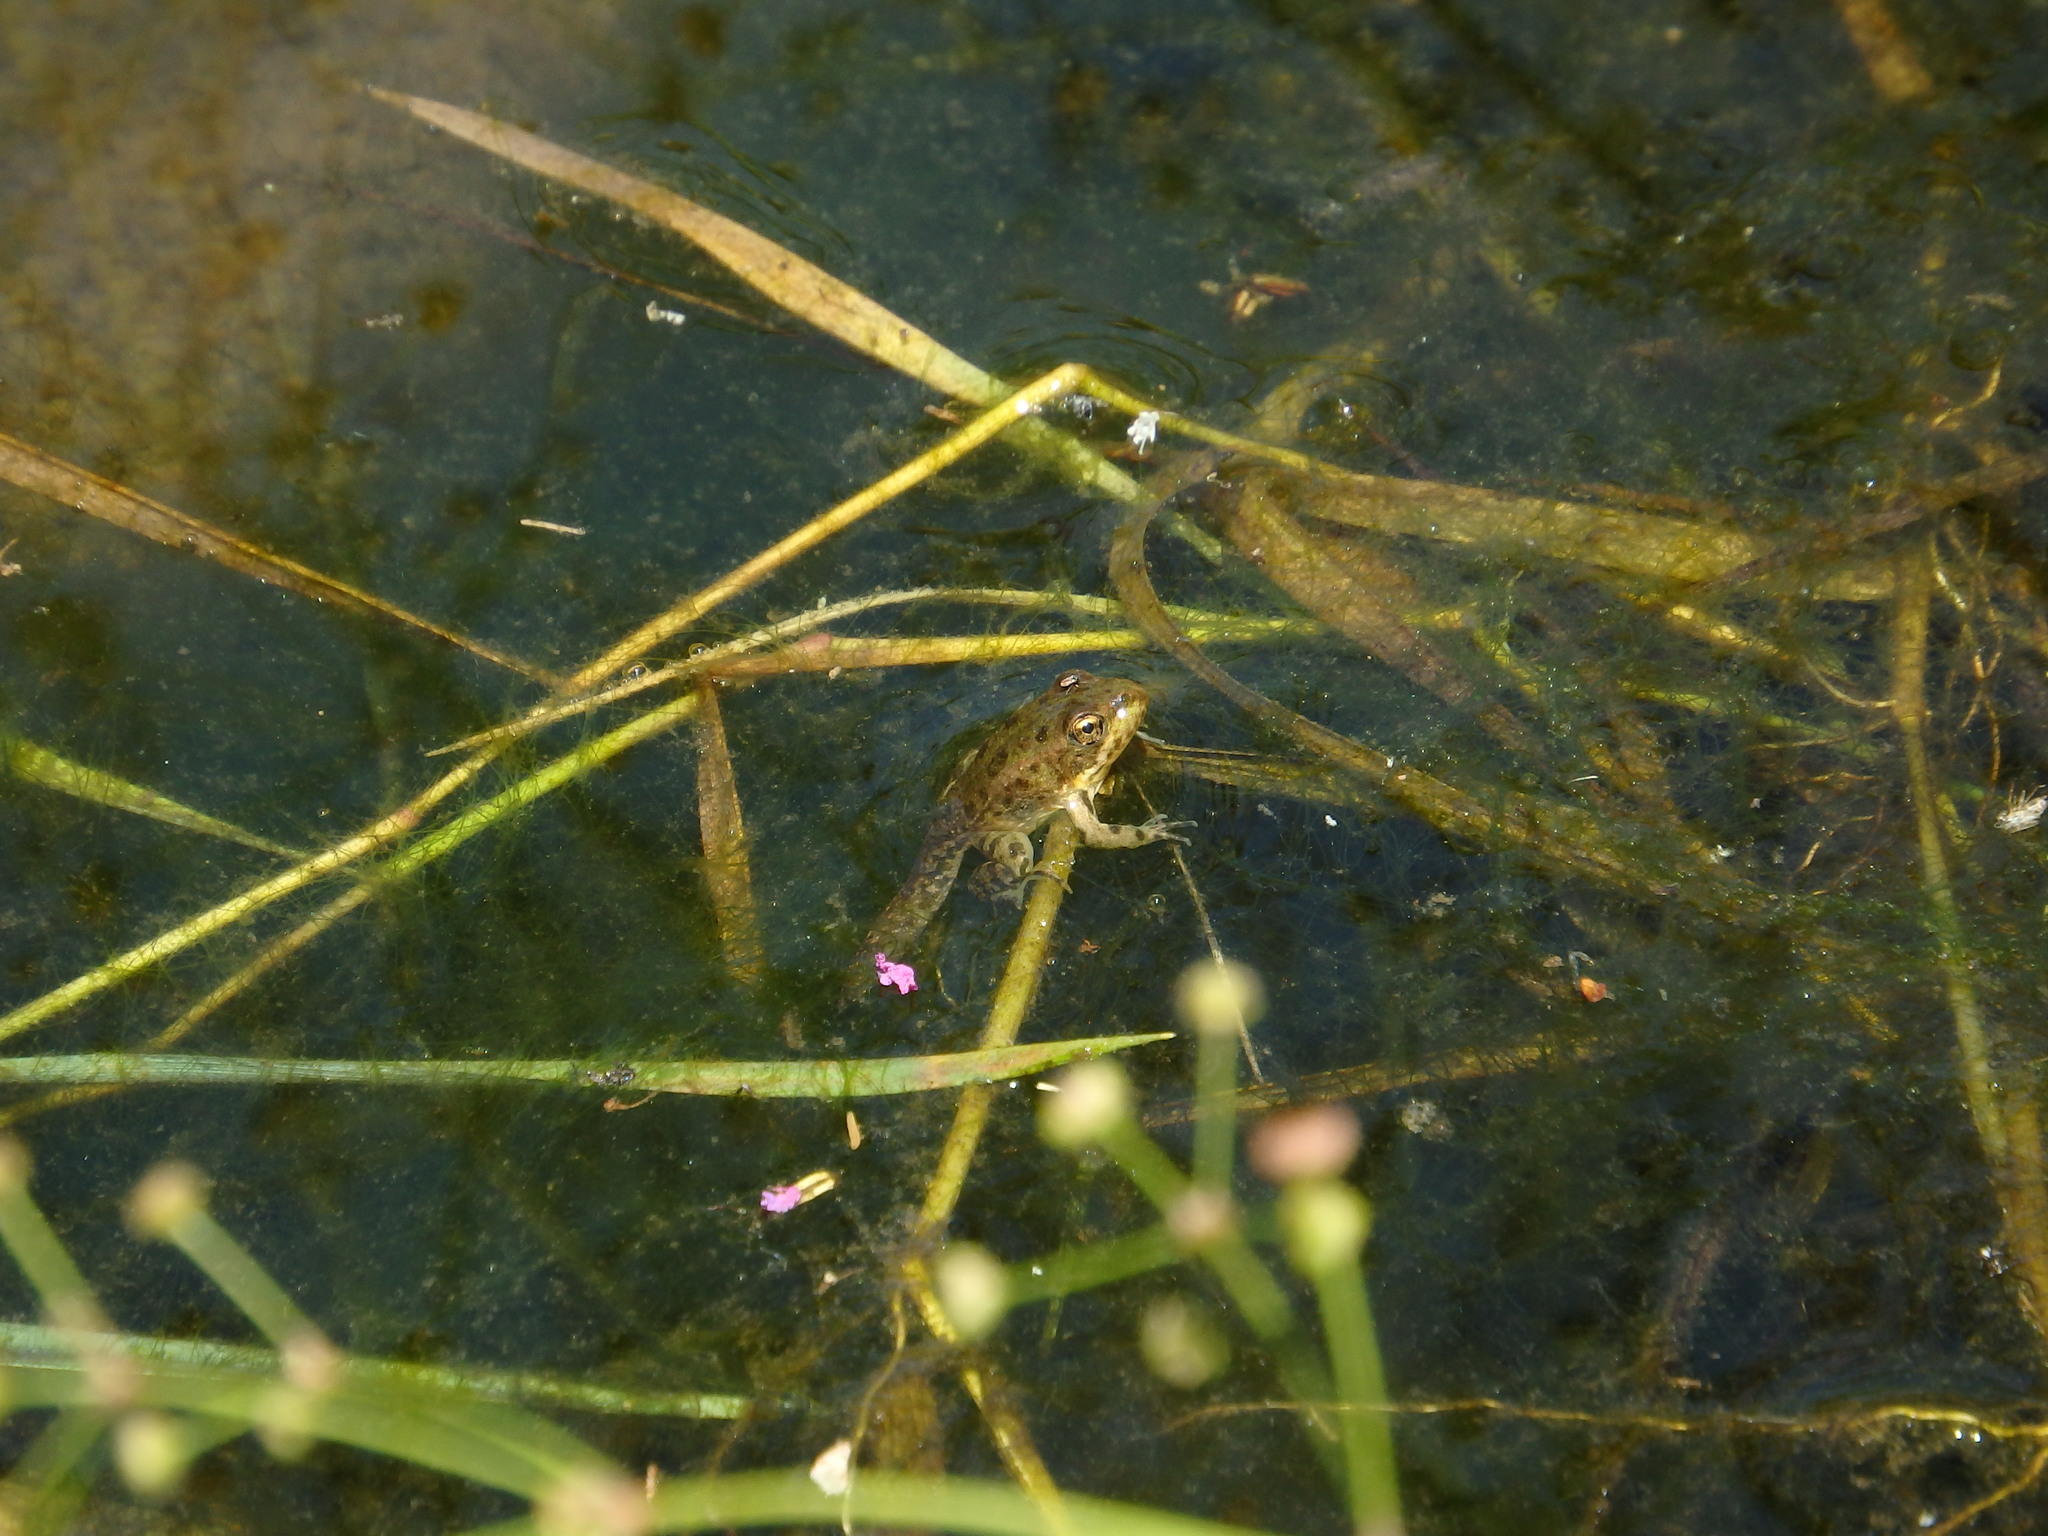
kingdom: Animalia
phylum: Chordata
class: Amphibia
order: Anura
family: Ranidae
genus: Pelophylax
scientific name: Pelophylax perezi
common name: Perez's frog
